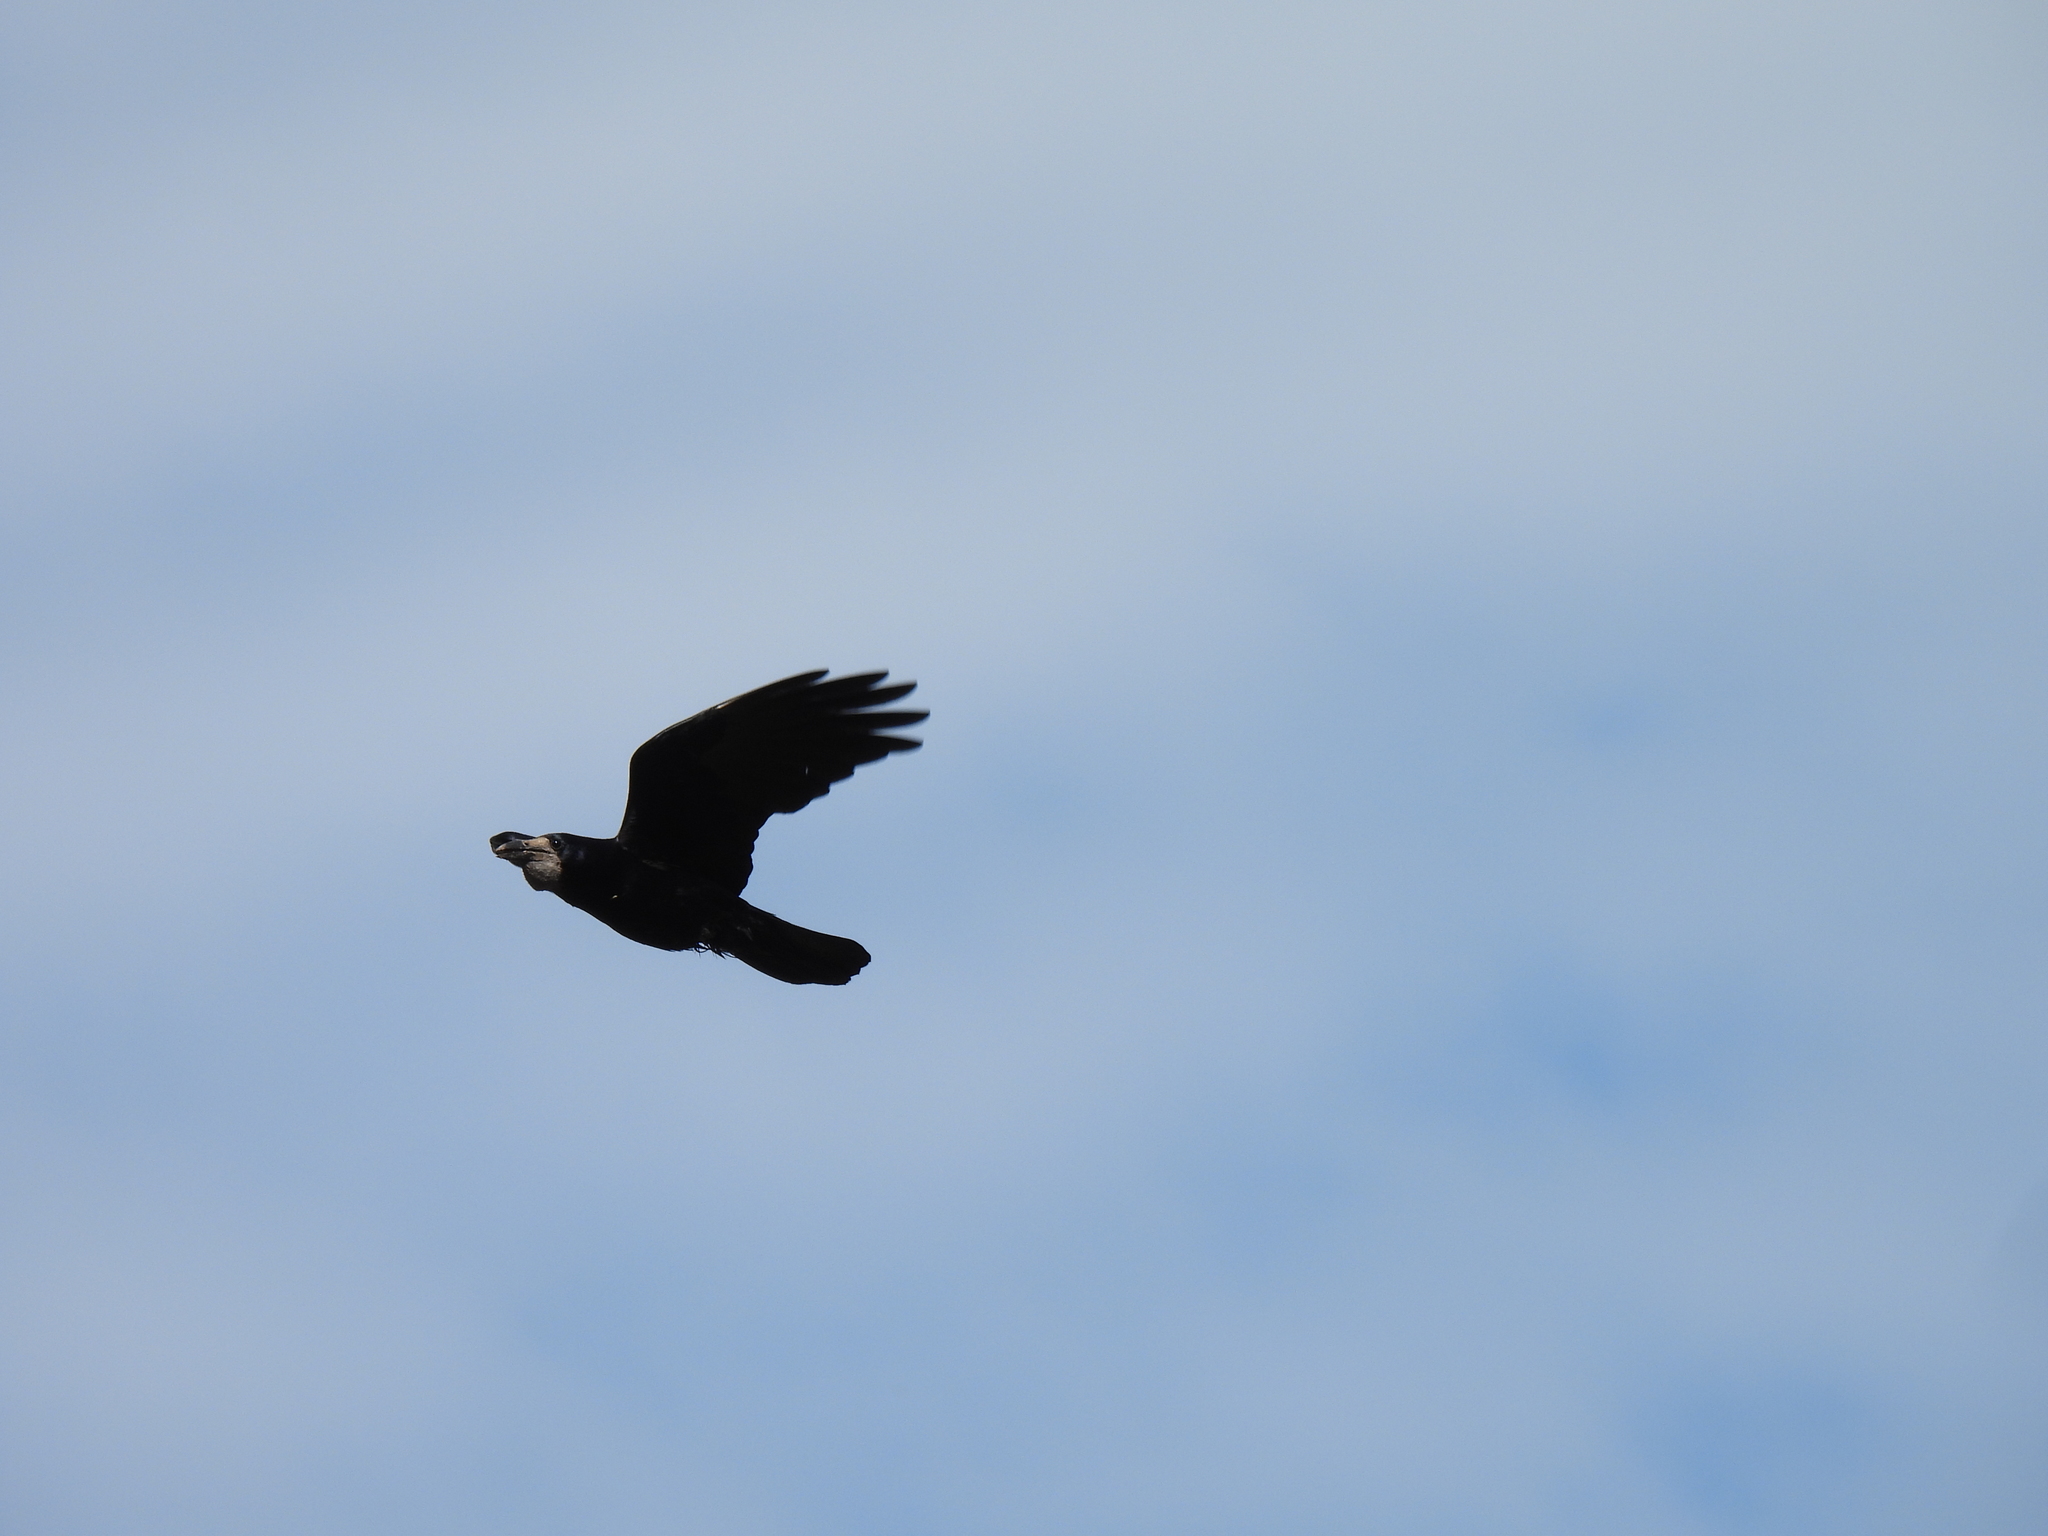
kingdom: Animalia
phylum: Chordata
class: Aves
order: Passeriformes
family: Corvidae
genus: Corvus
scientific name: Corvus frugilegus
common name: Rook
